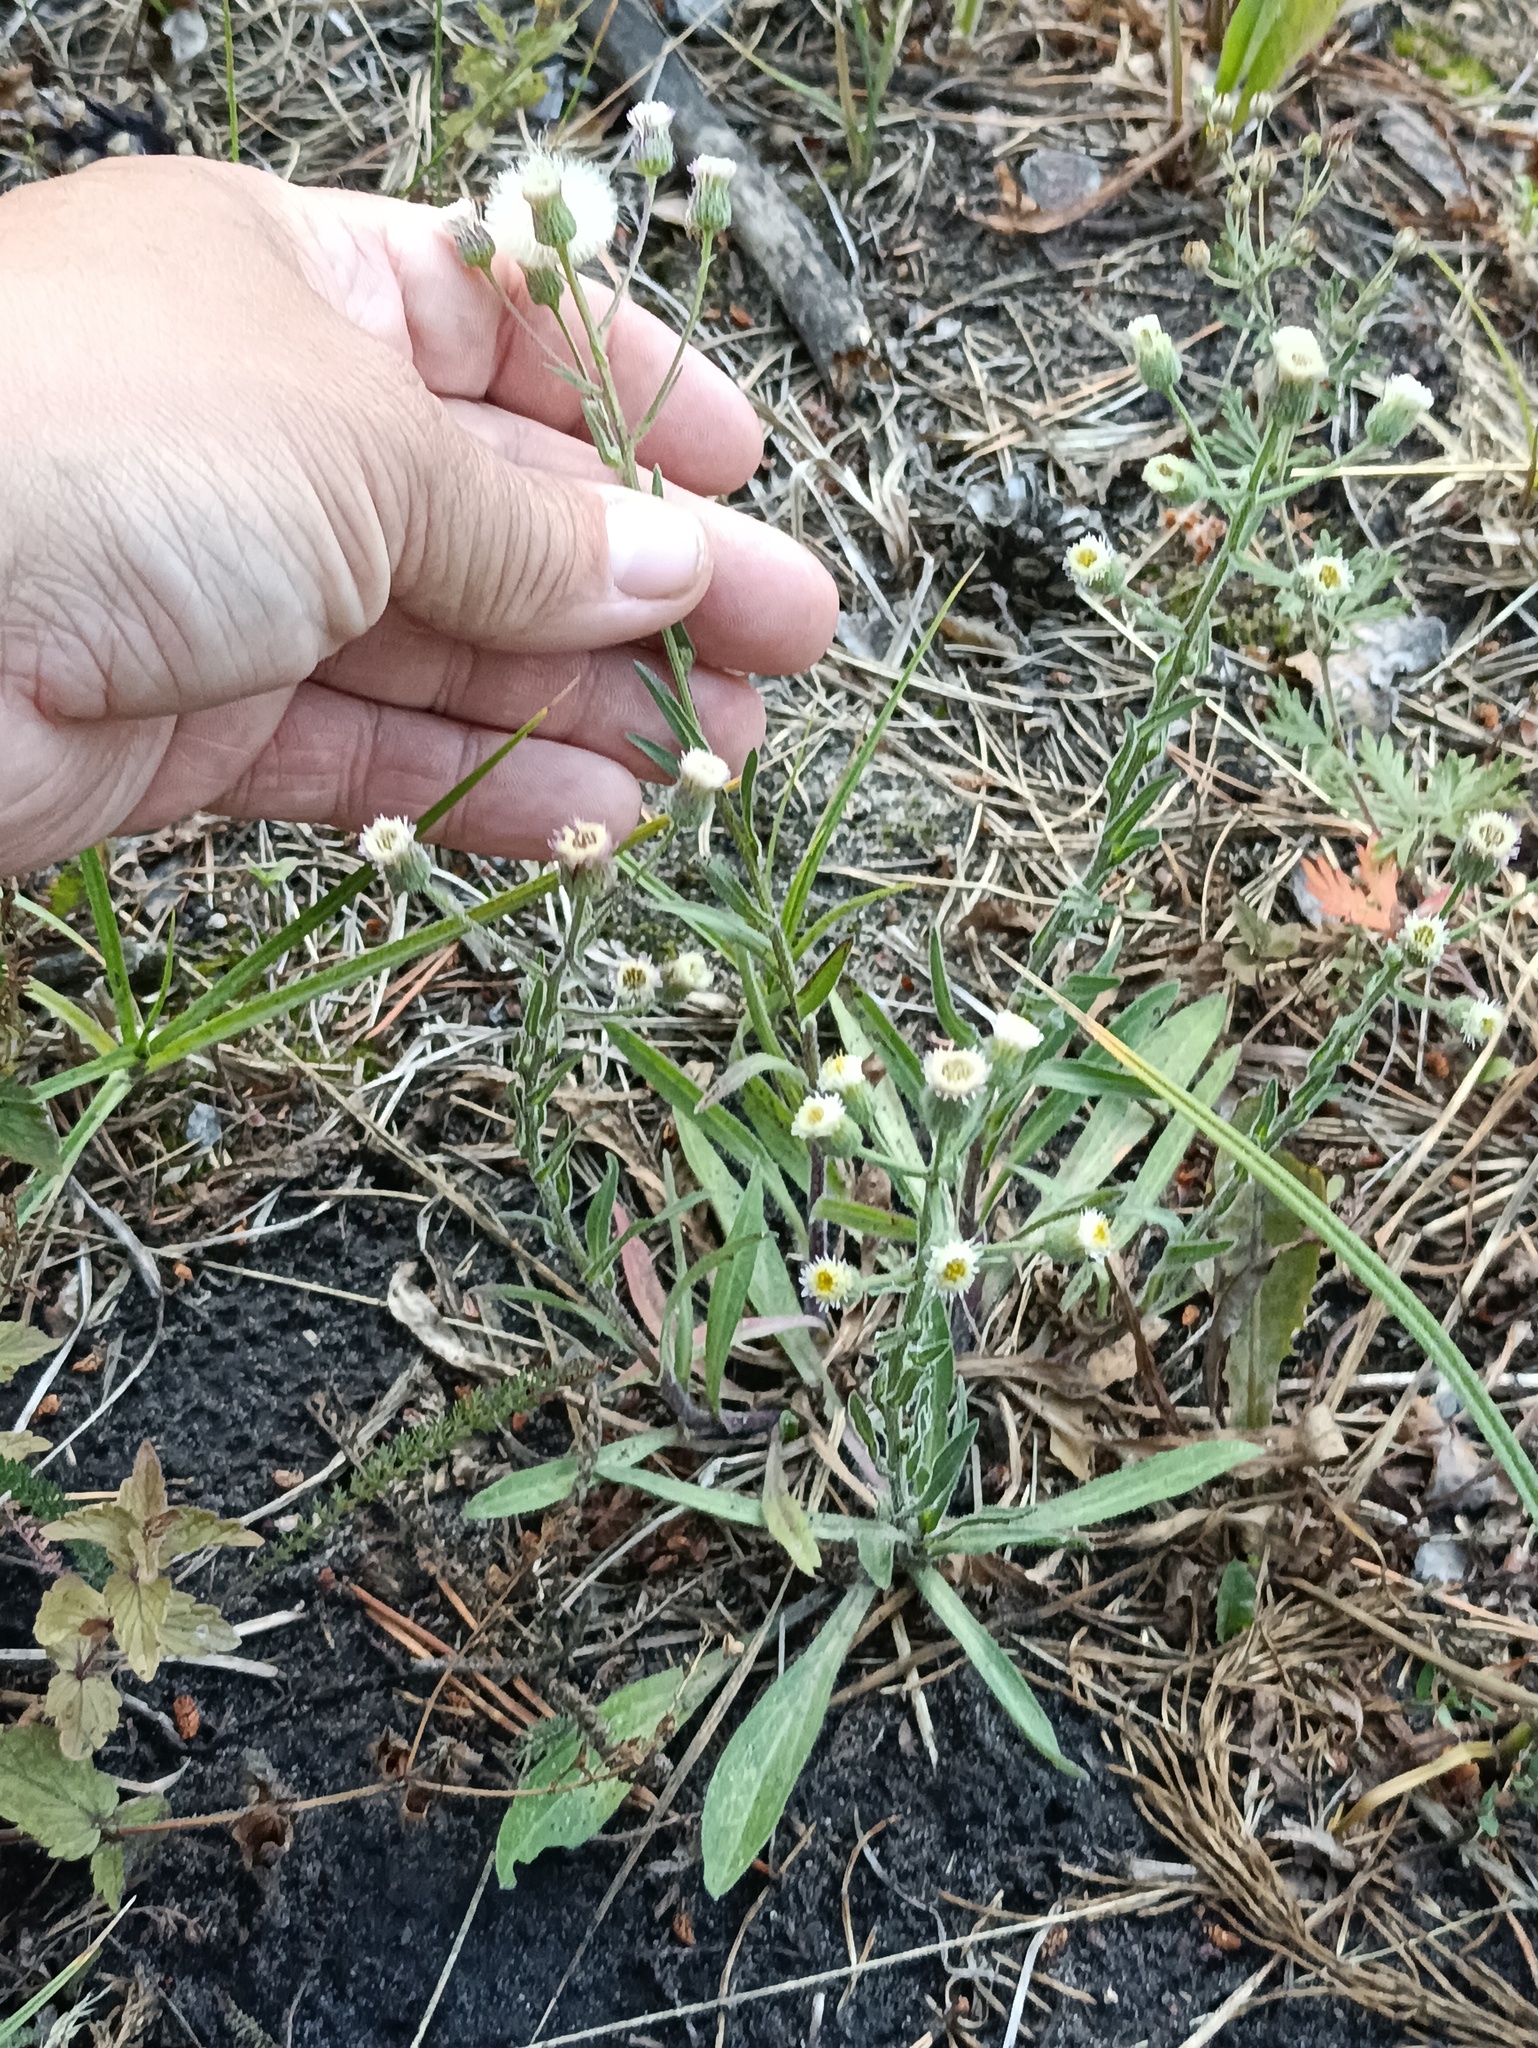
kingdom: Plantae
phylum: Tracheophyta
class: Magnoliopsida
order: Asterales
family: Asteraceae
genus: Erigeron
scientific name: Erigeron acris
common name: Blue fleabane
